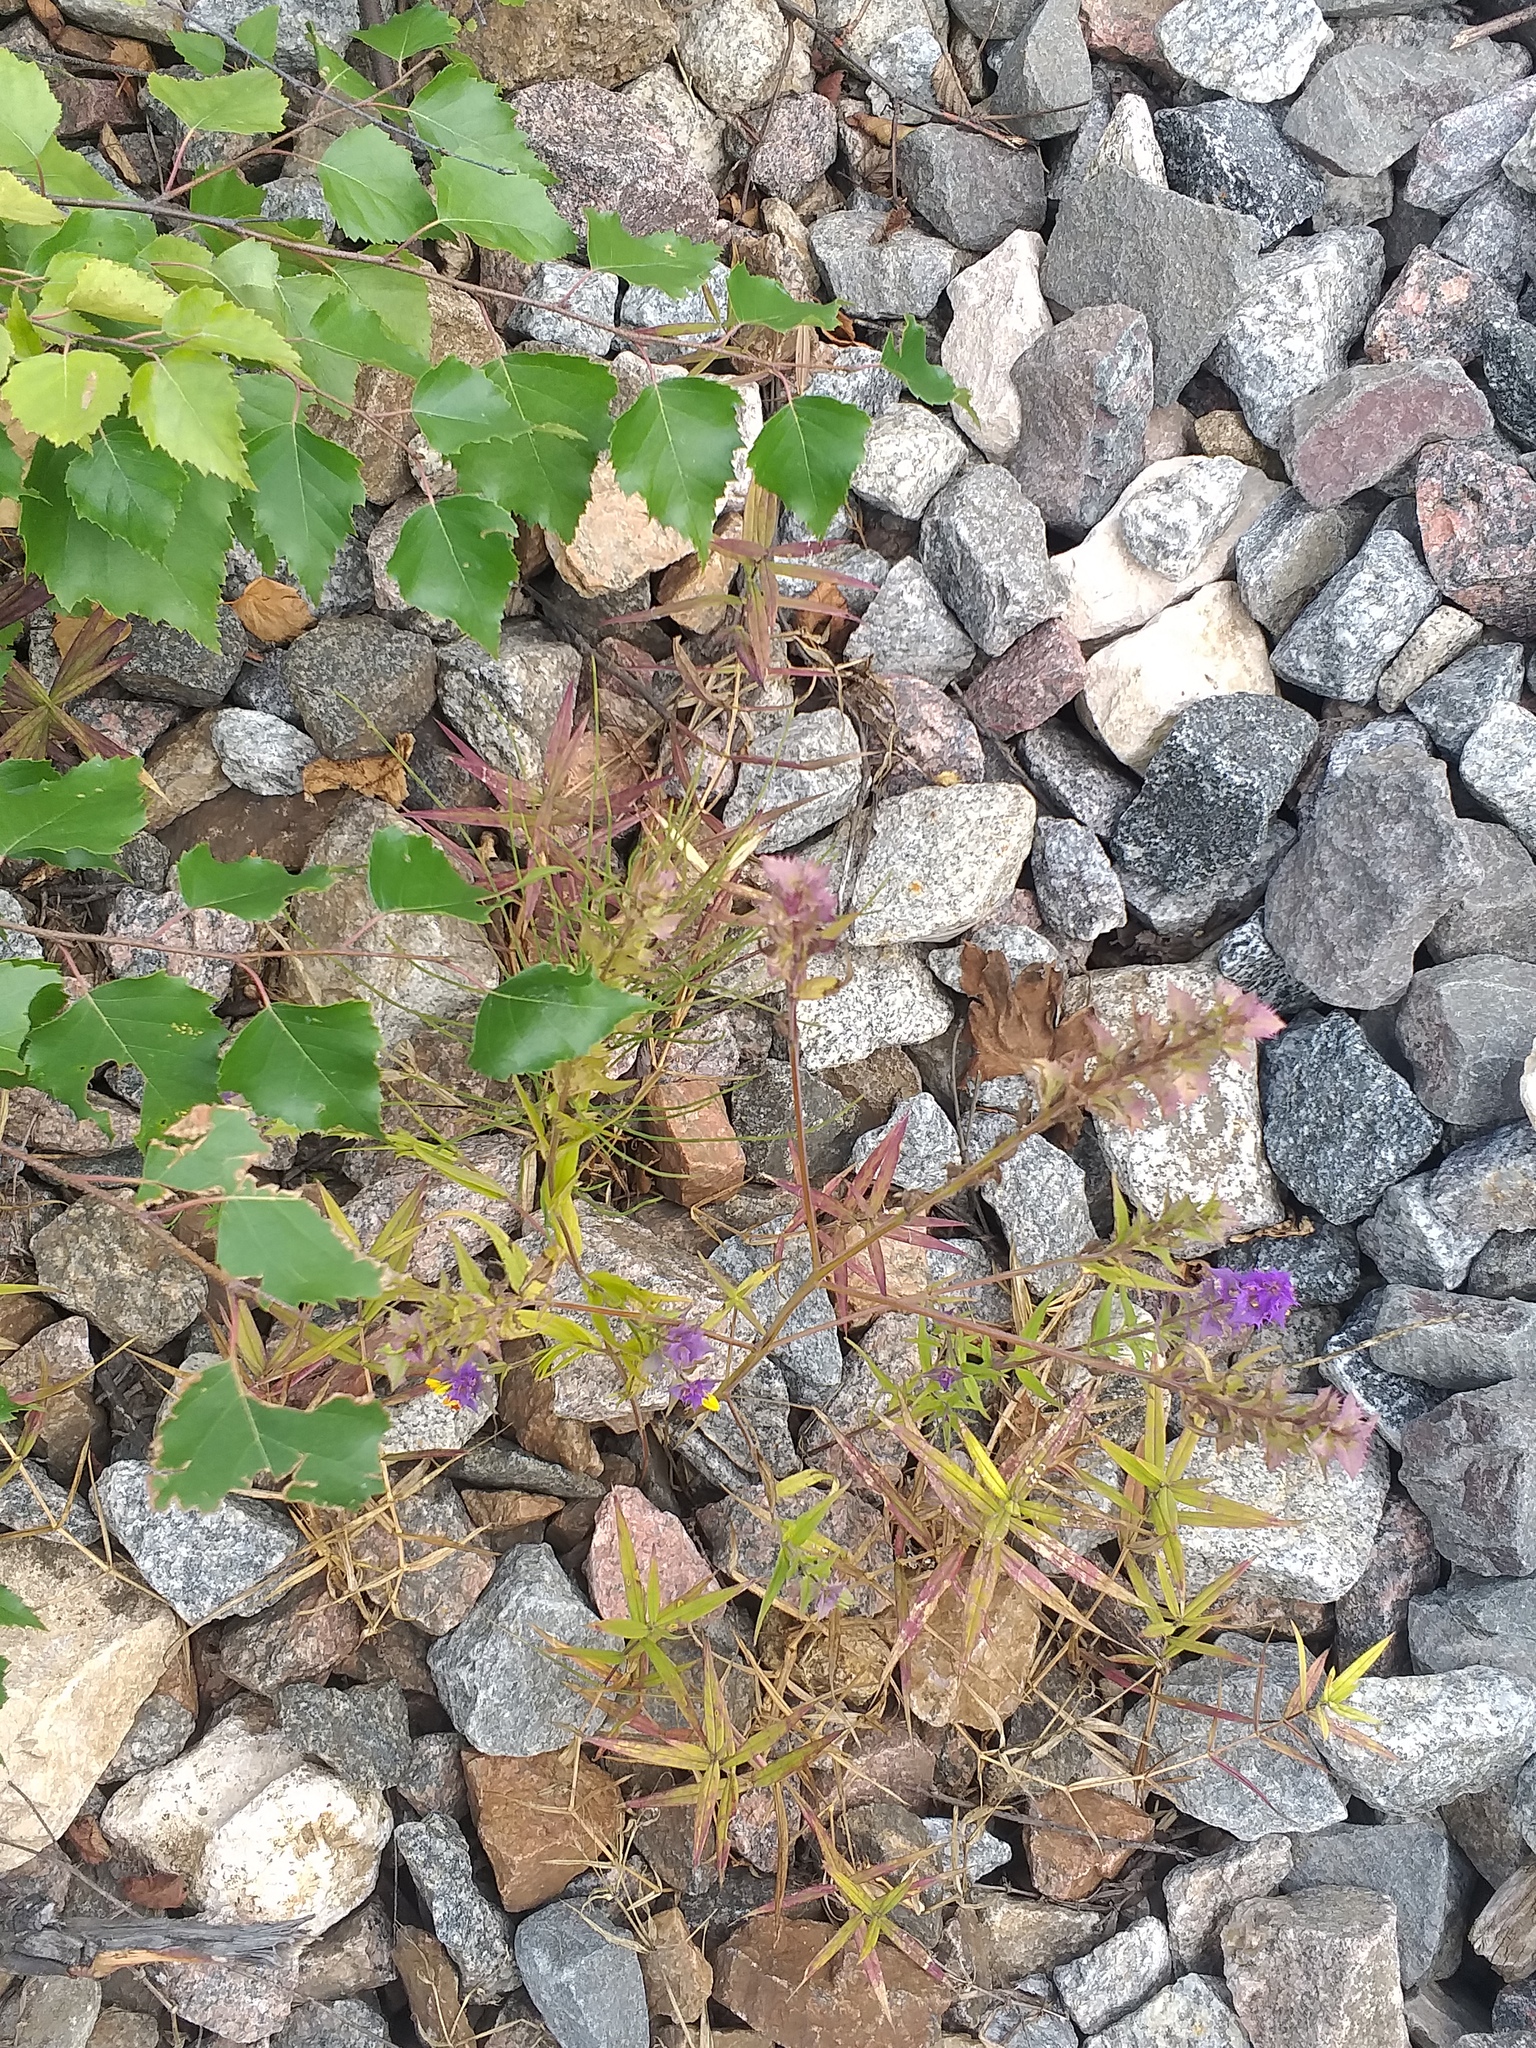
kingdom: Plantae
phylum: Tracheophyta
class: Magnoliopsida
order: Lamiales
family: Orobanchaceae
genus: Melampyrum
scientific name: Melampyrum nemorosum
